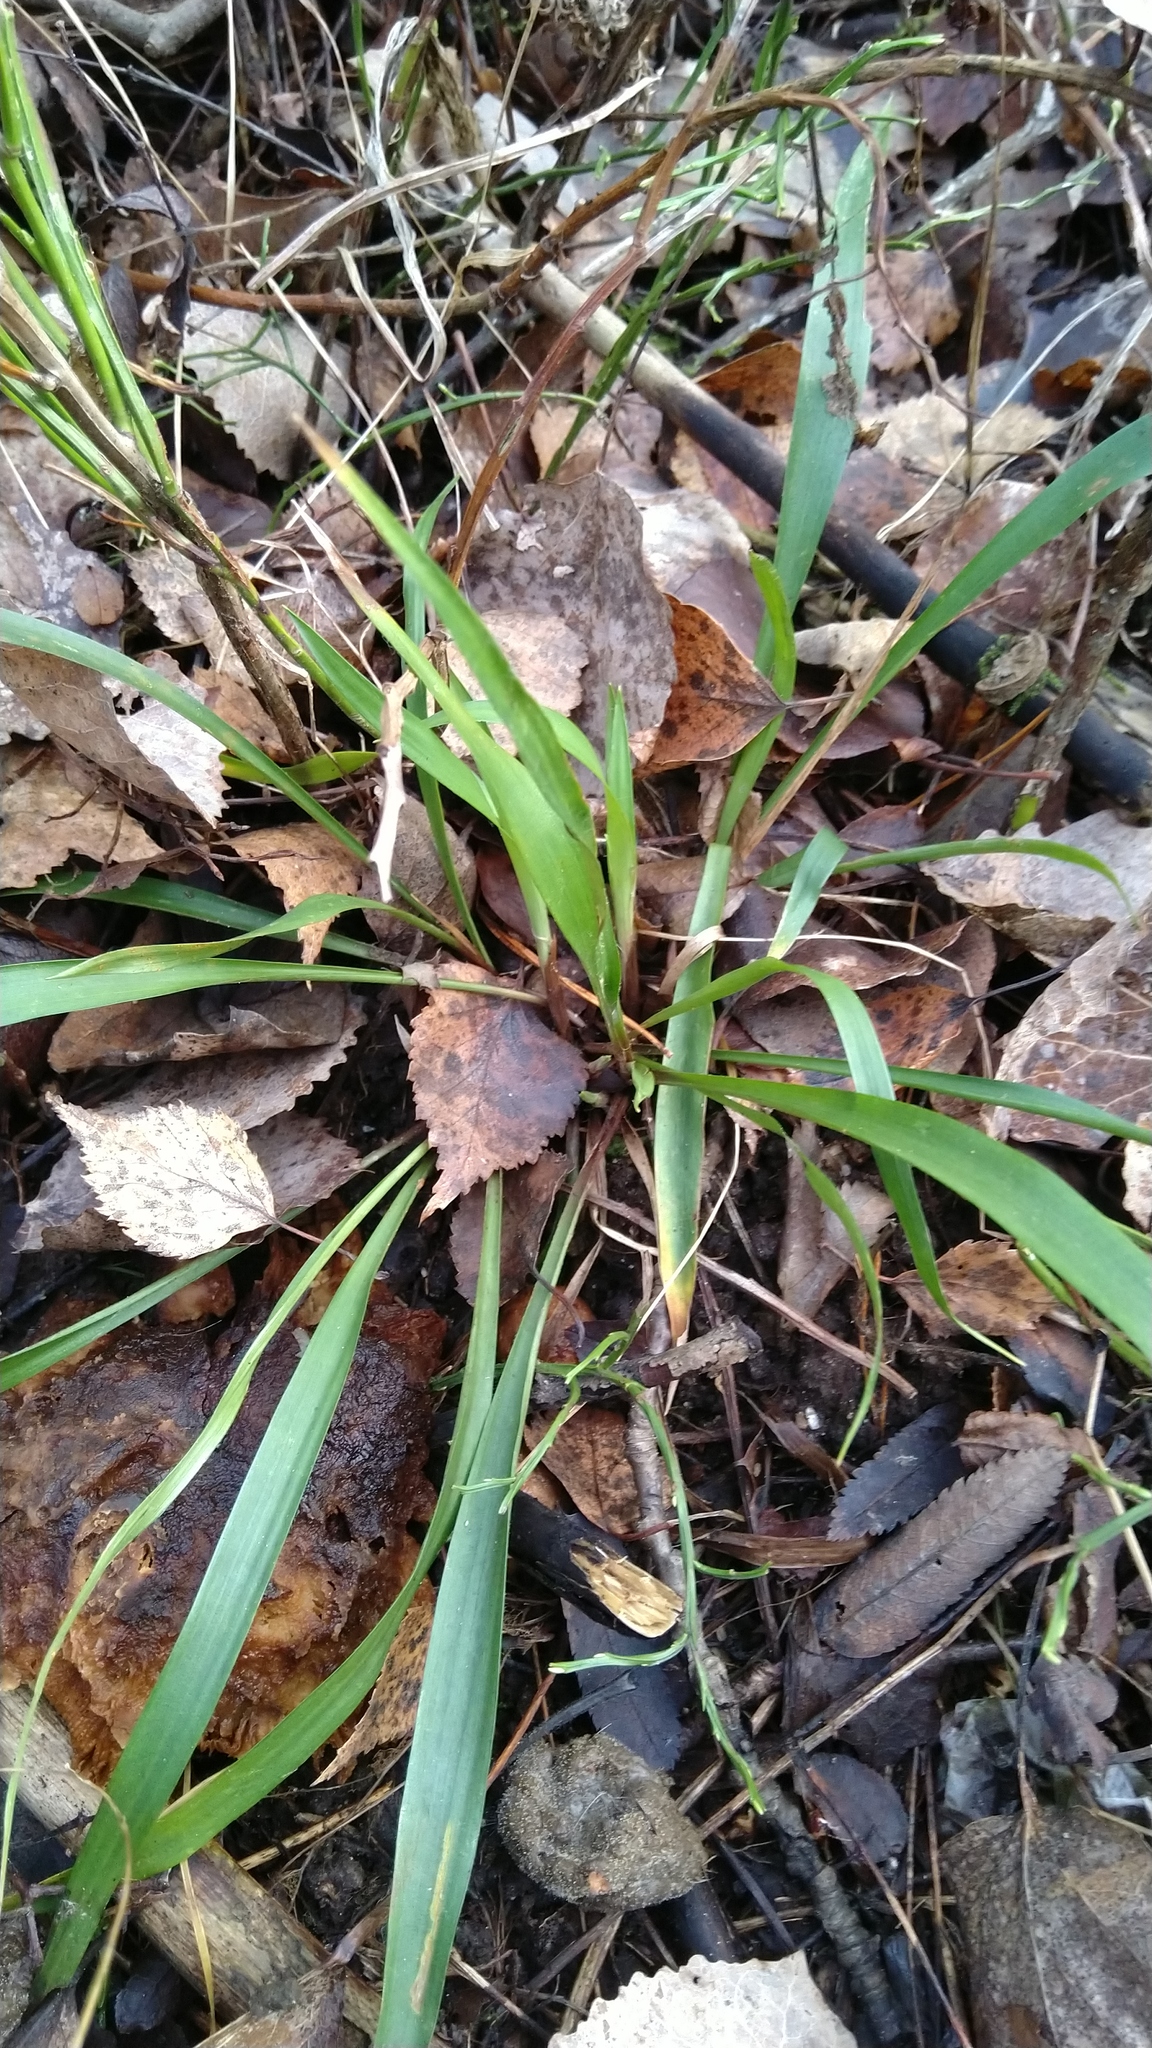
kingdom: Plantae
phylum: Tracheophyta
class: Liliopsida
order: Poales
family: Juncaceae
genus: Luzula
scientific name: Luzula pilosa
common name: Hairy wood-rush
